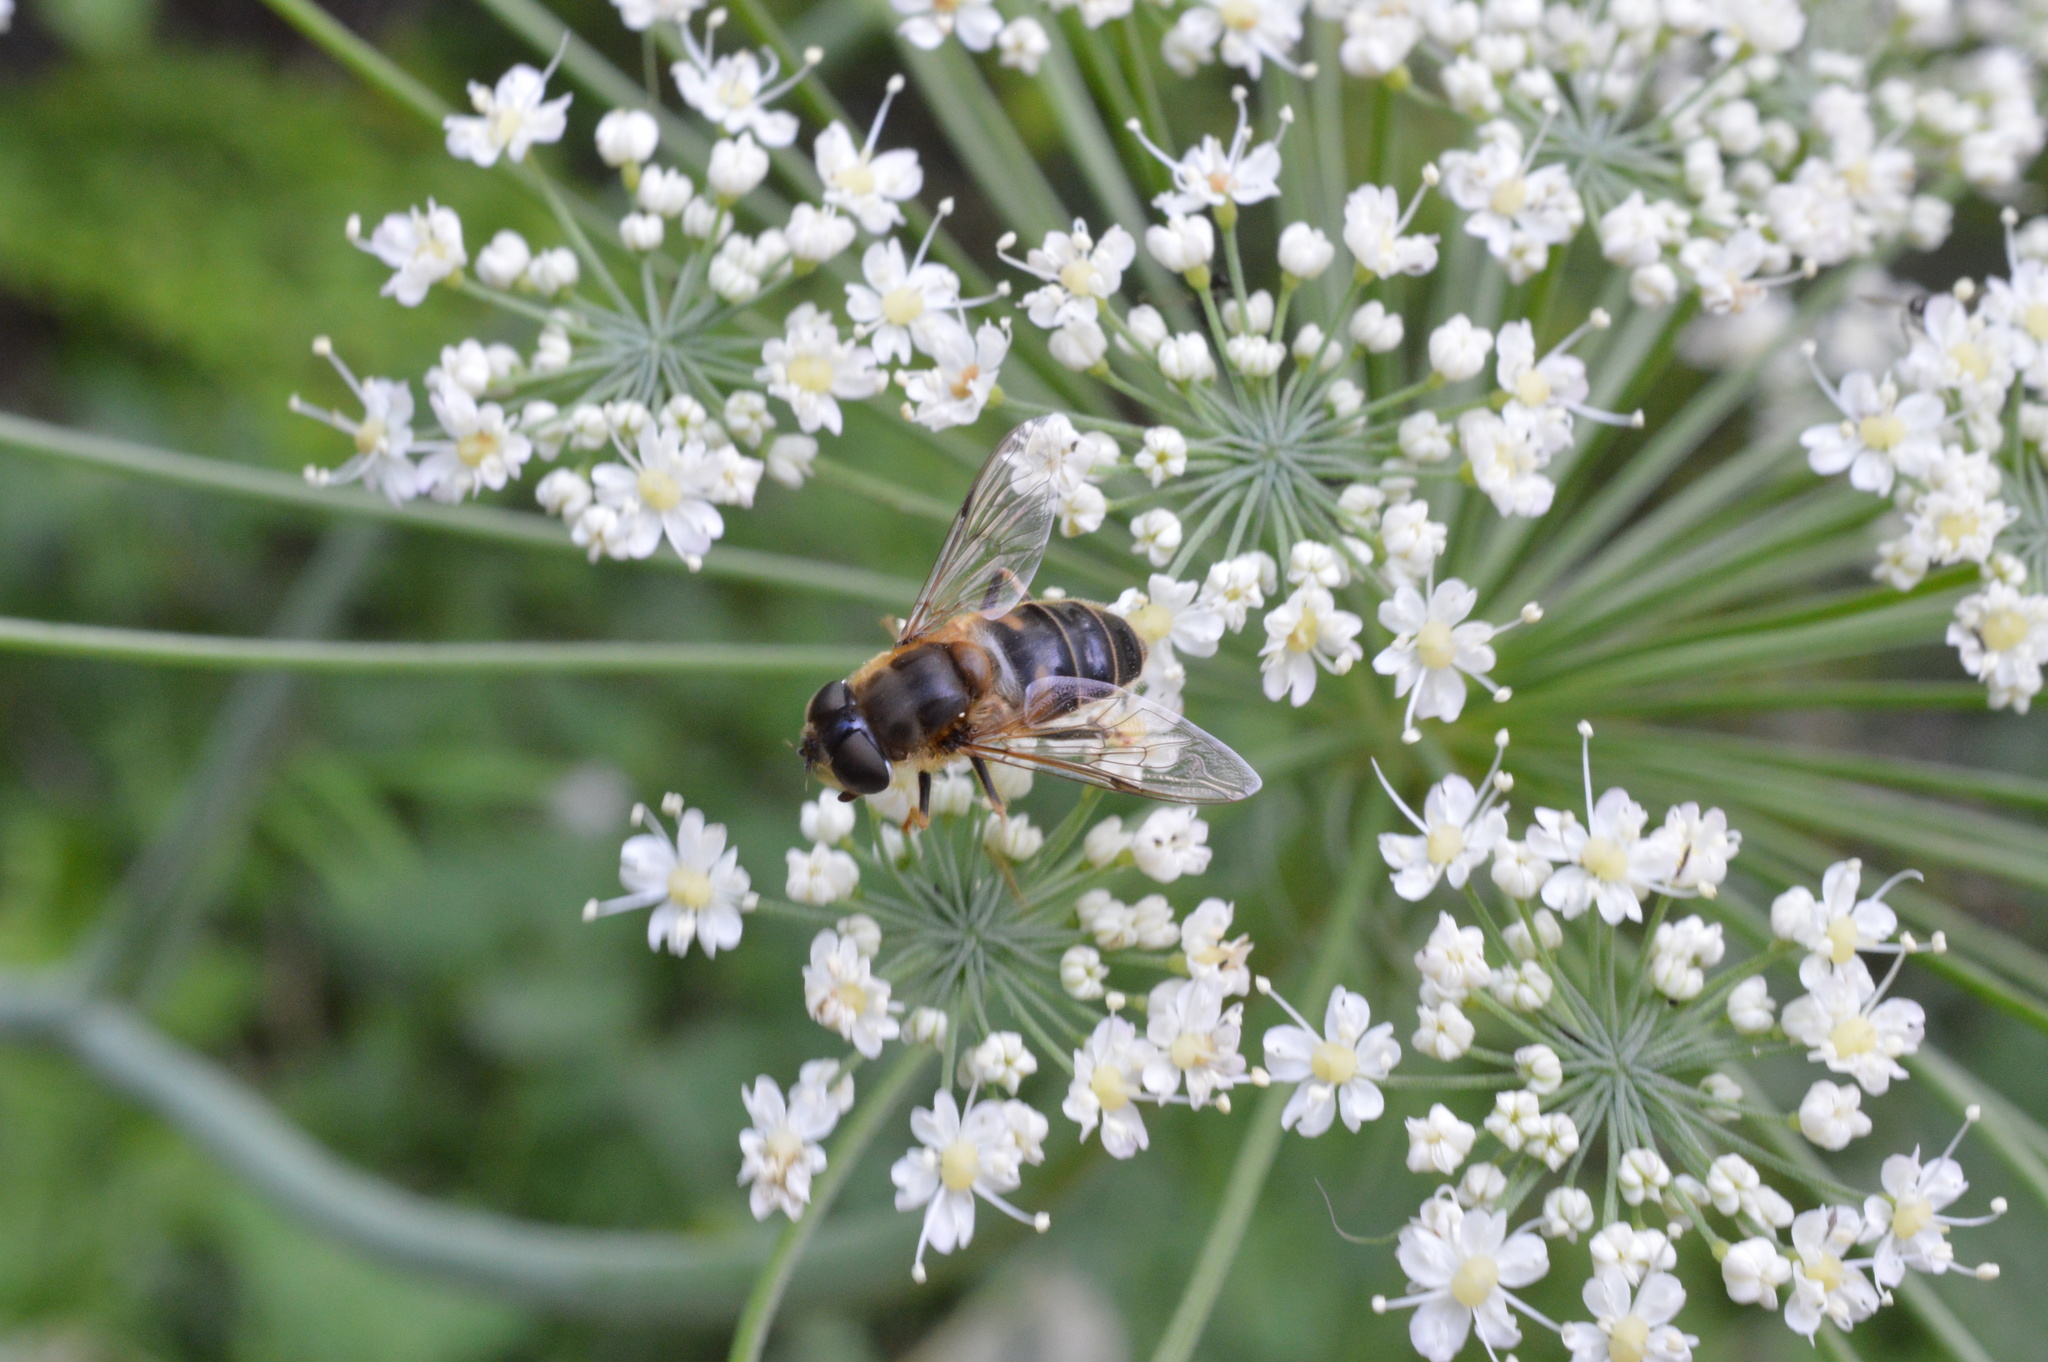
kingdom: Animalia
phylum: Arthropoda
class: Insecta
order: Diptera
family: Syrphidae
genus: Eristalis
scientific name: Eristalis pertinax
